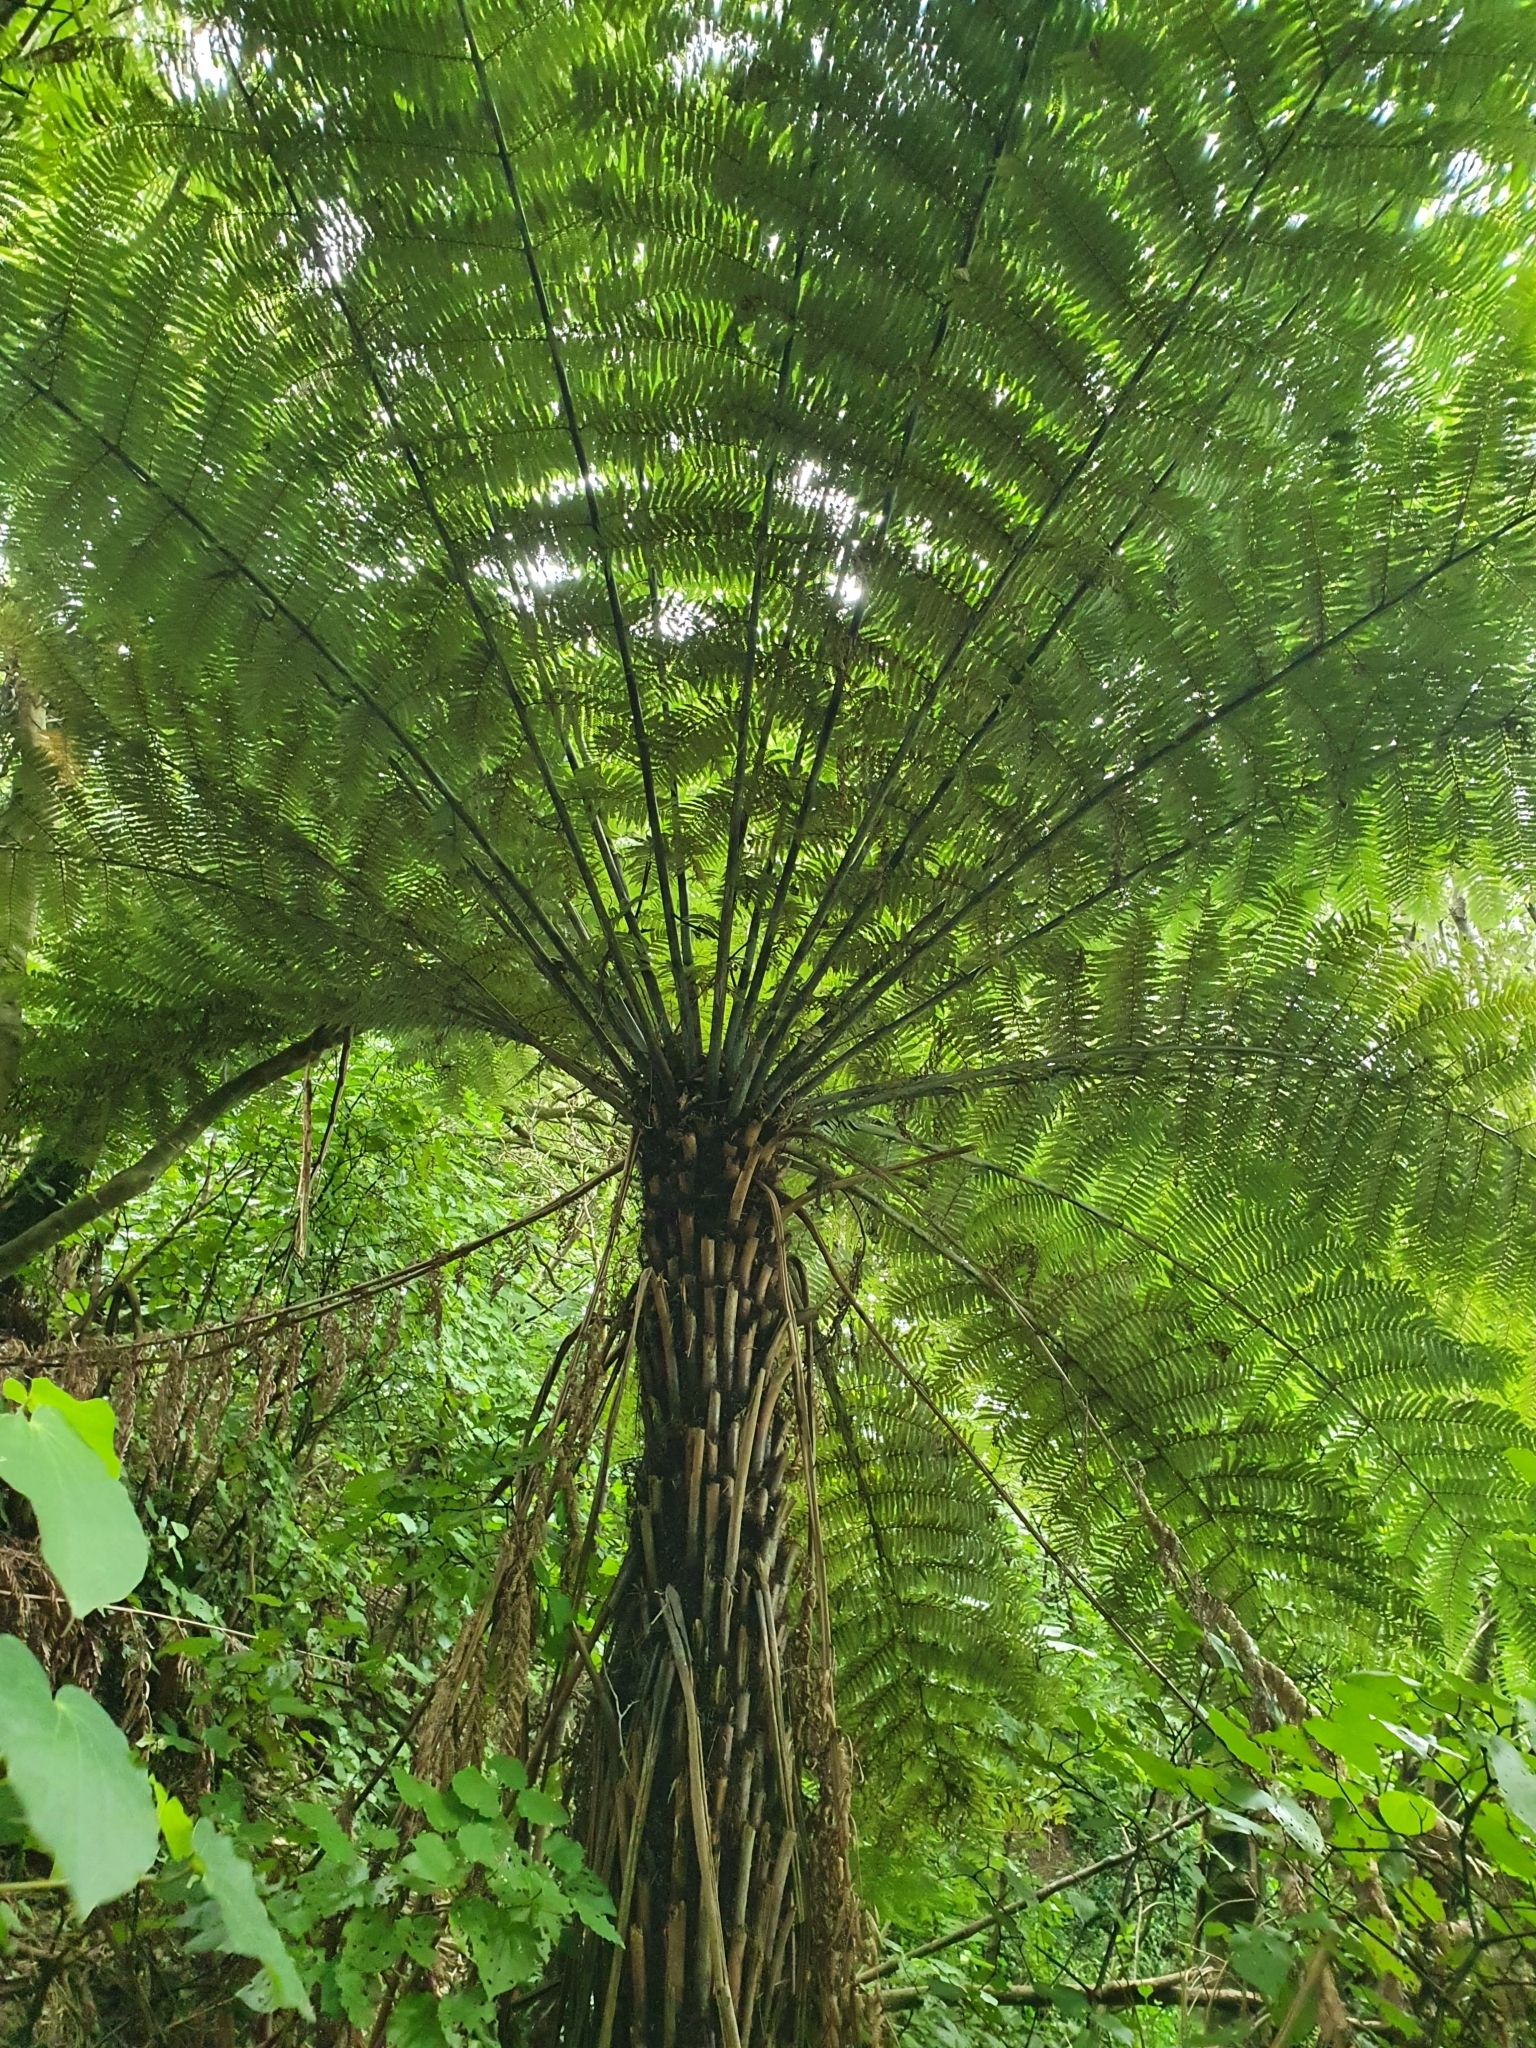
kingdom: Plantae
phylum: Tracheophyta
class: Polypodiopsida
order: Cyatheales
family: Cyatheaceae
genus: Alsophila
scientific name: Alsophila dealbata
